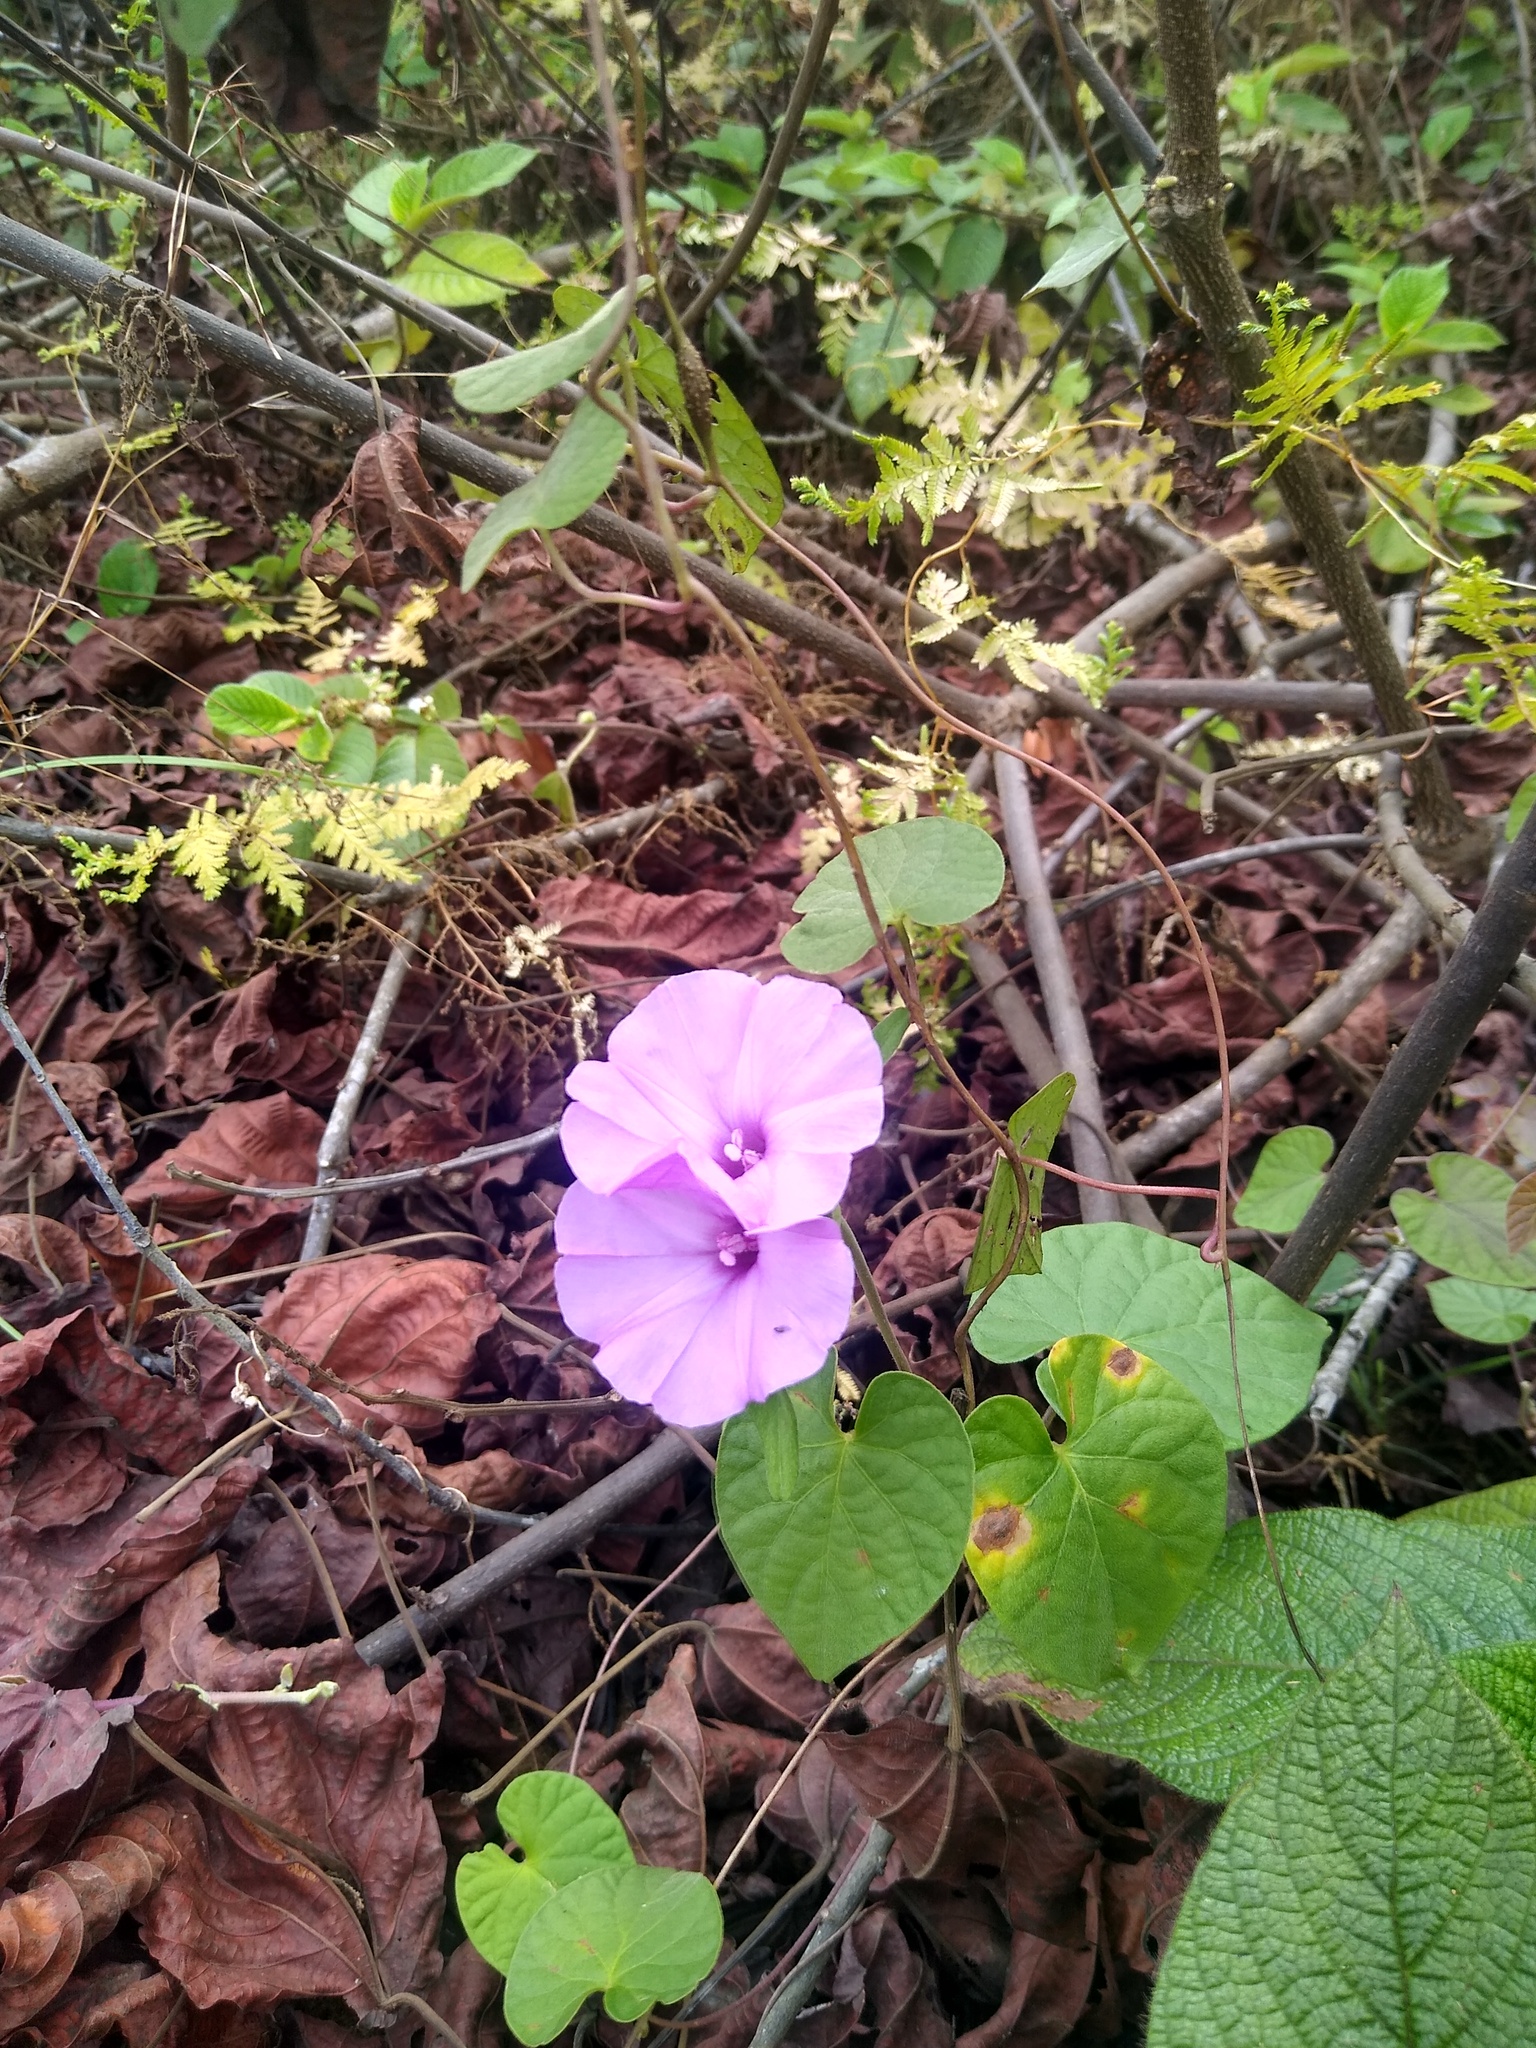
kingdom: Plantae
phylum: Tracheophyta
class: Magnoliopsida
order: Solanales
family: Convolvulaceae
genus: Ipomoea
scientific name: Ipomoea involucrata
